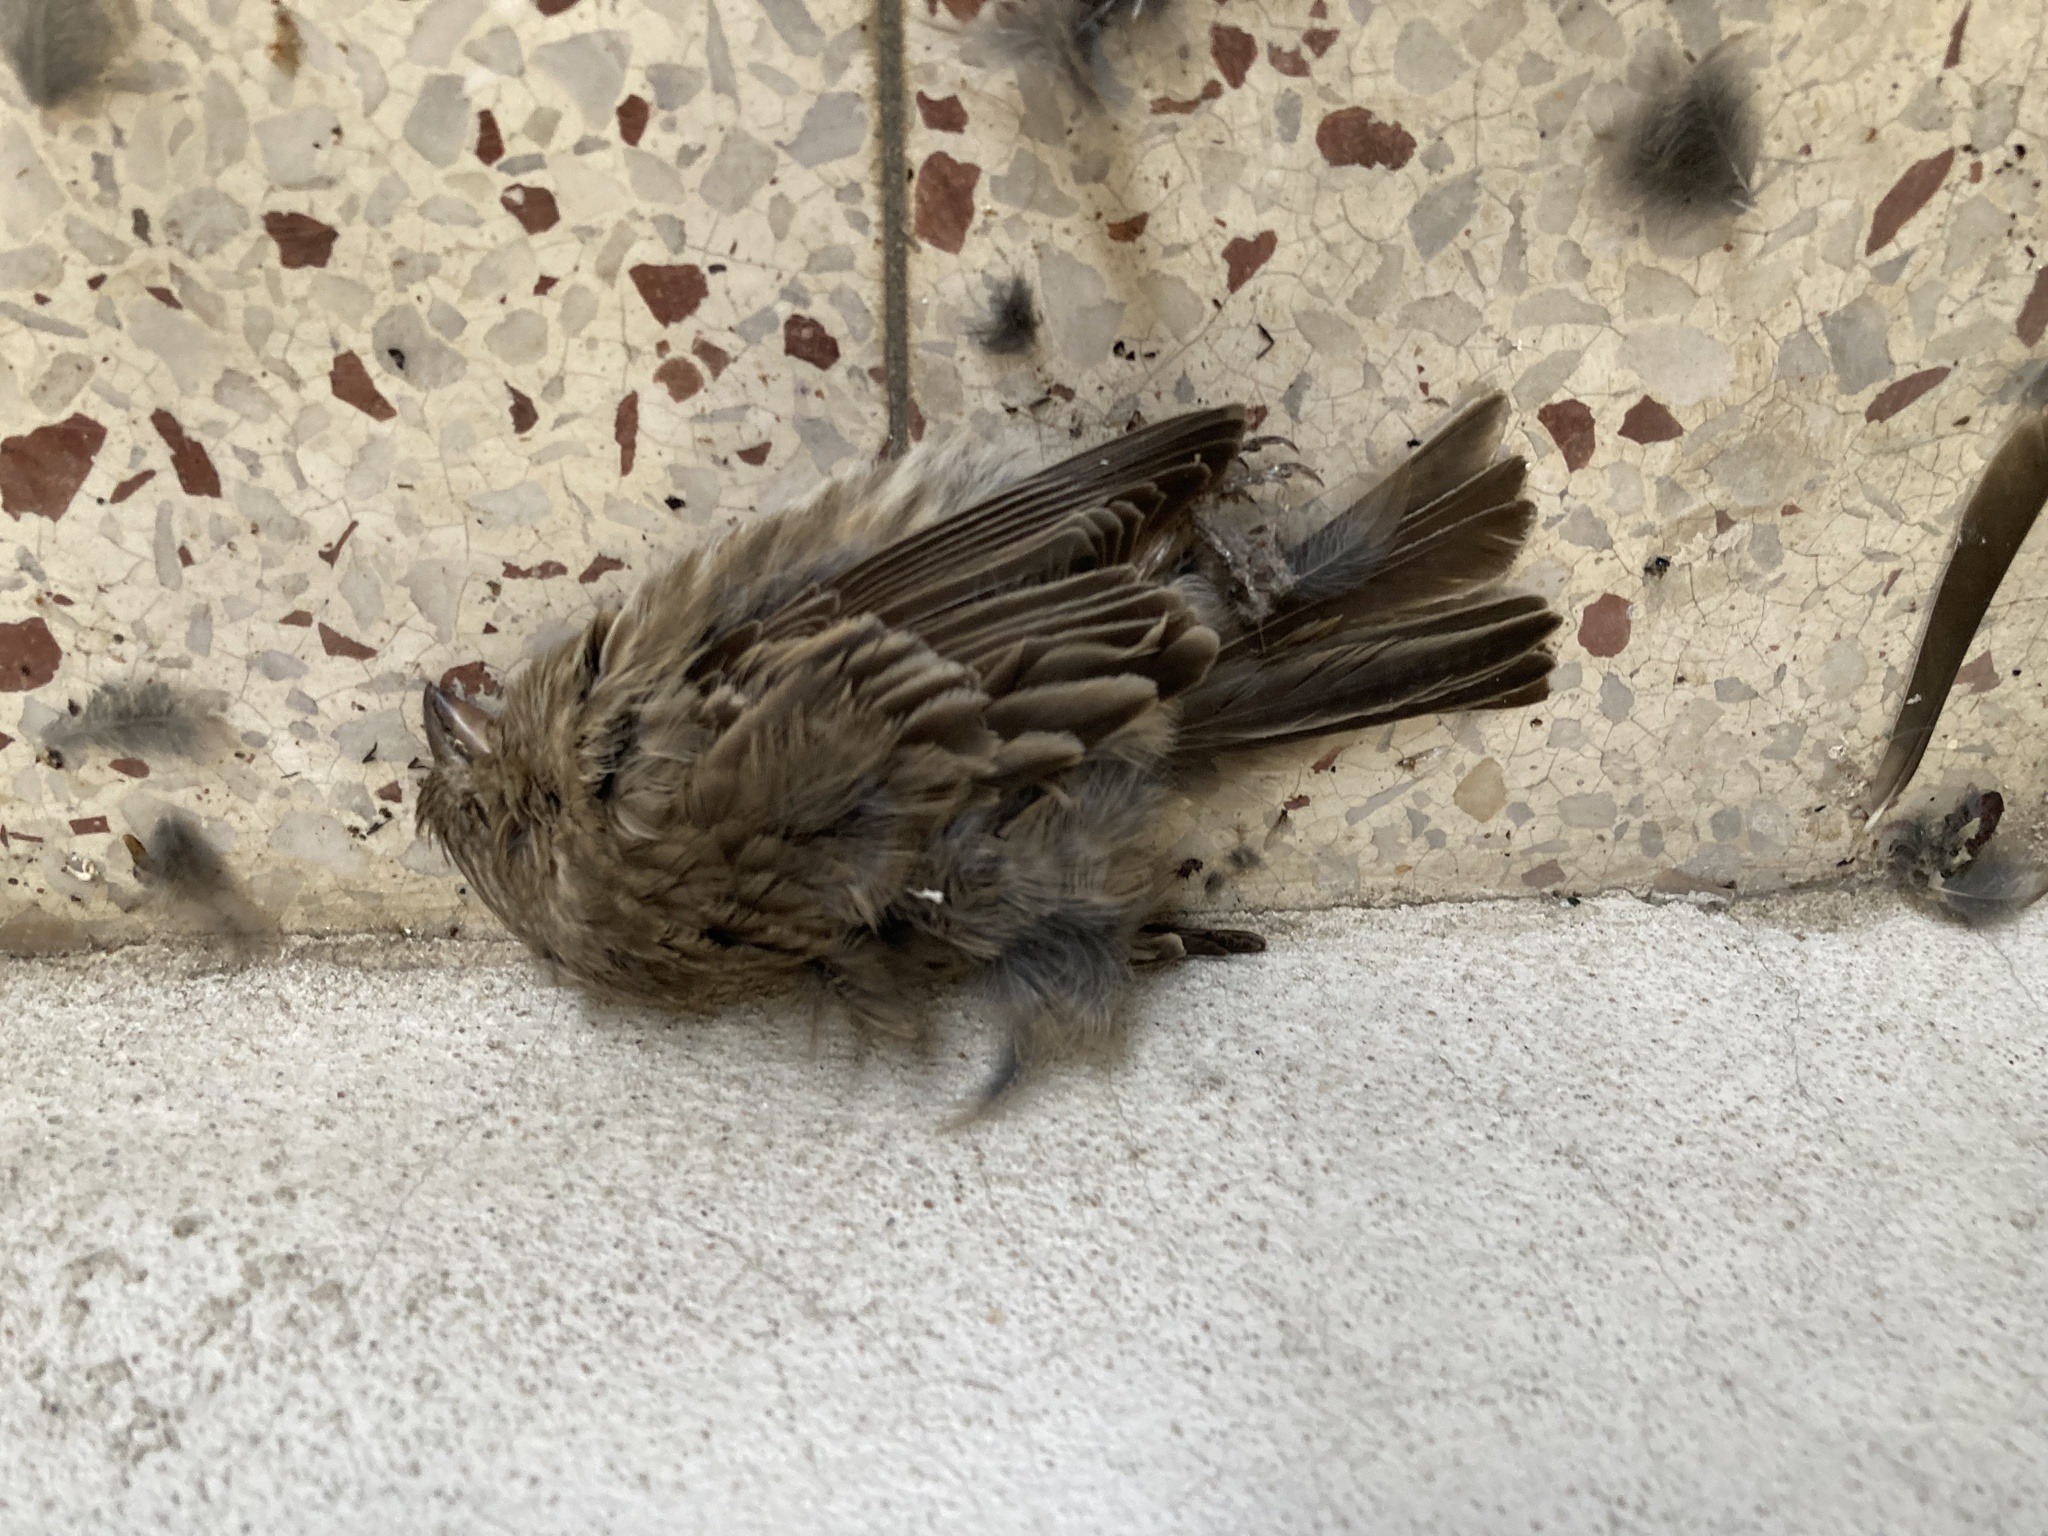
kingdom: Animalia
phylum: Chordata
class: Aves
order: Passeriformes
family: Fringillidae
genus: Haemorhous
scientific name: Haemorhous mexicanus
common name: House finch
